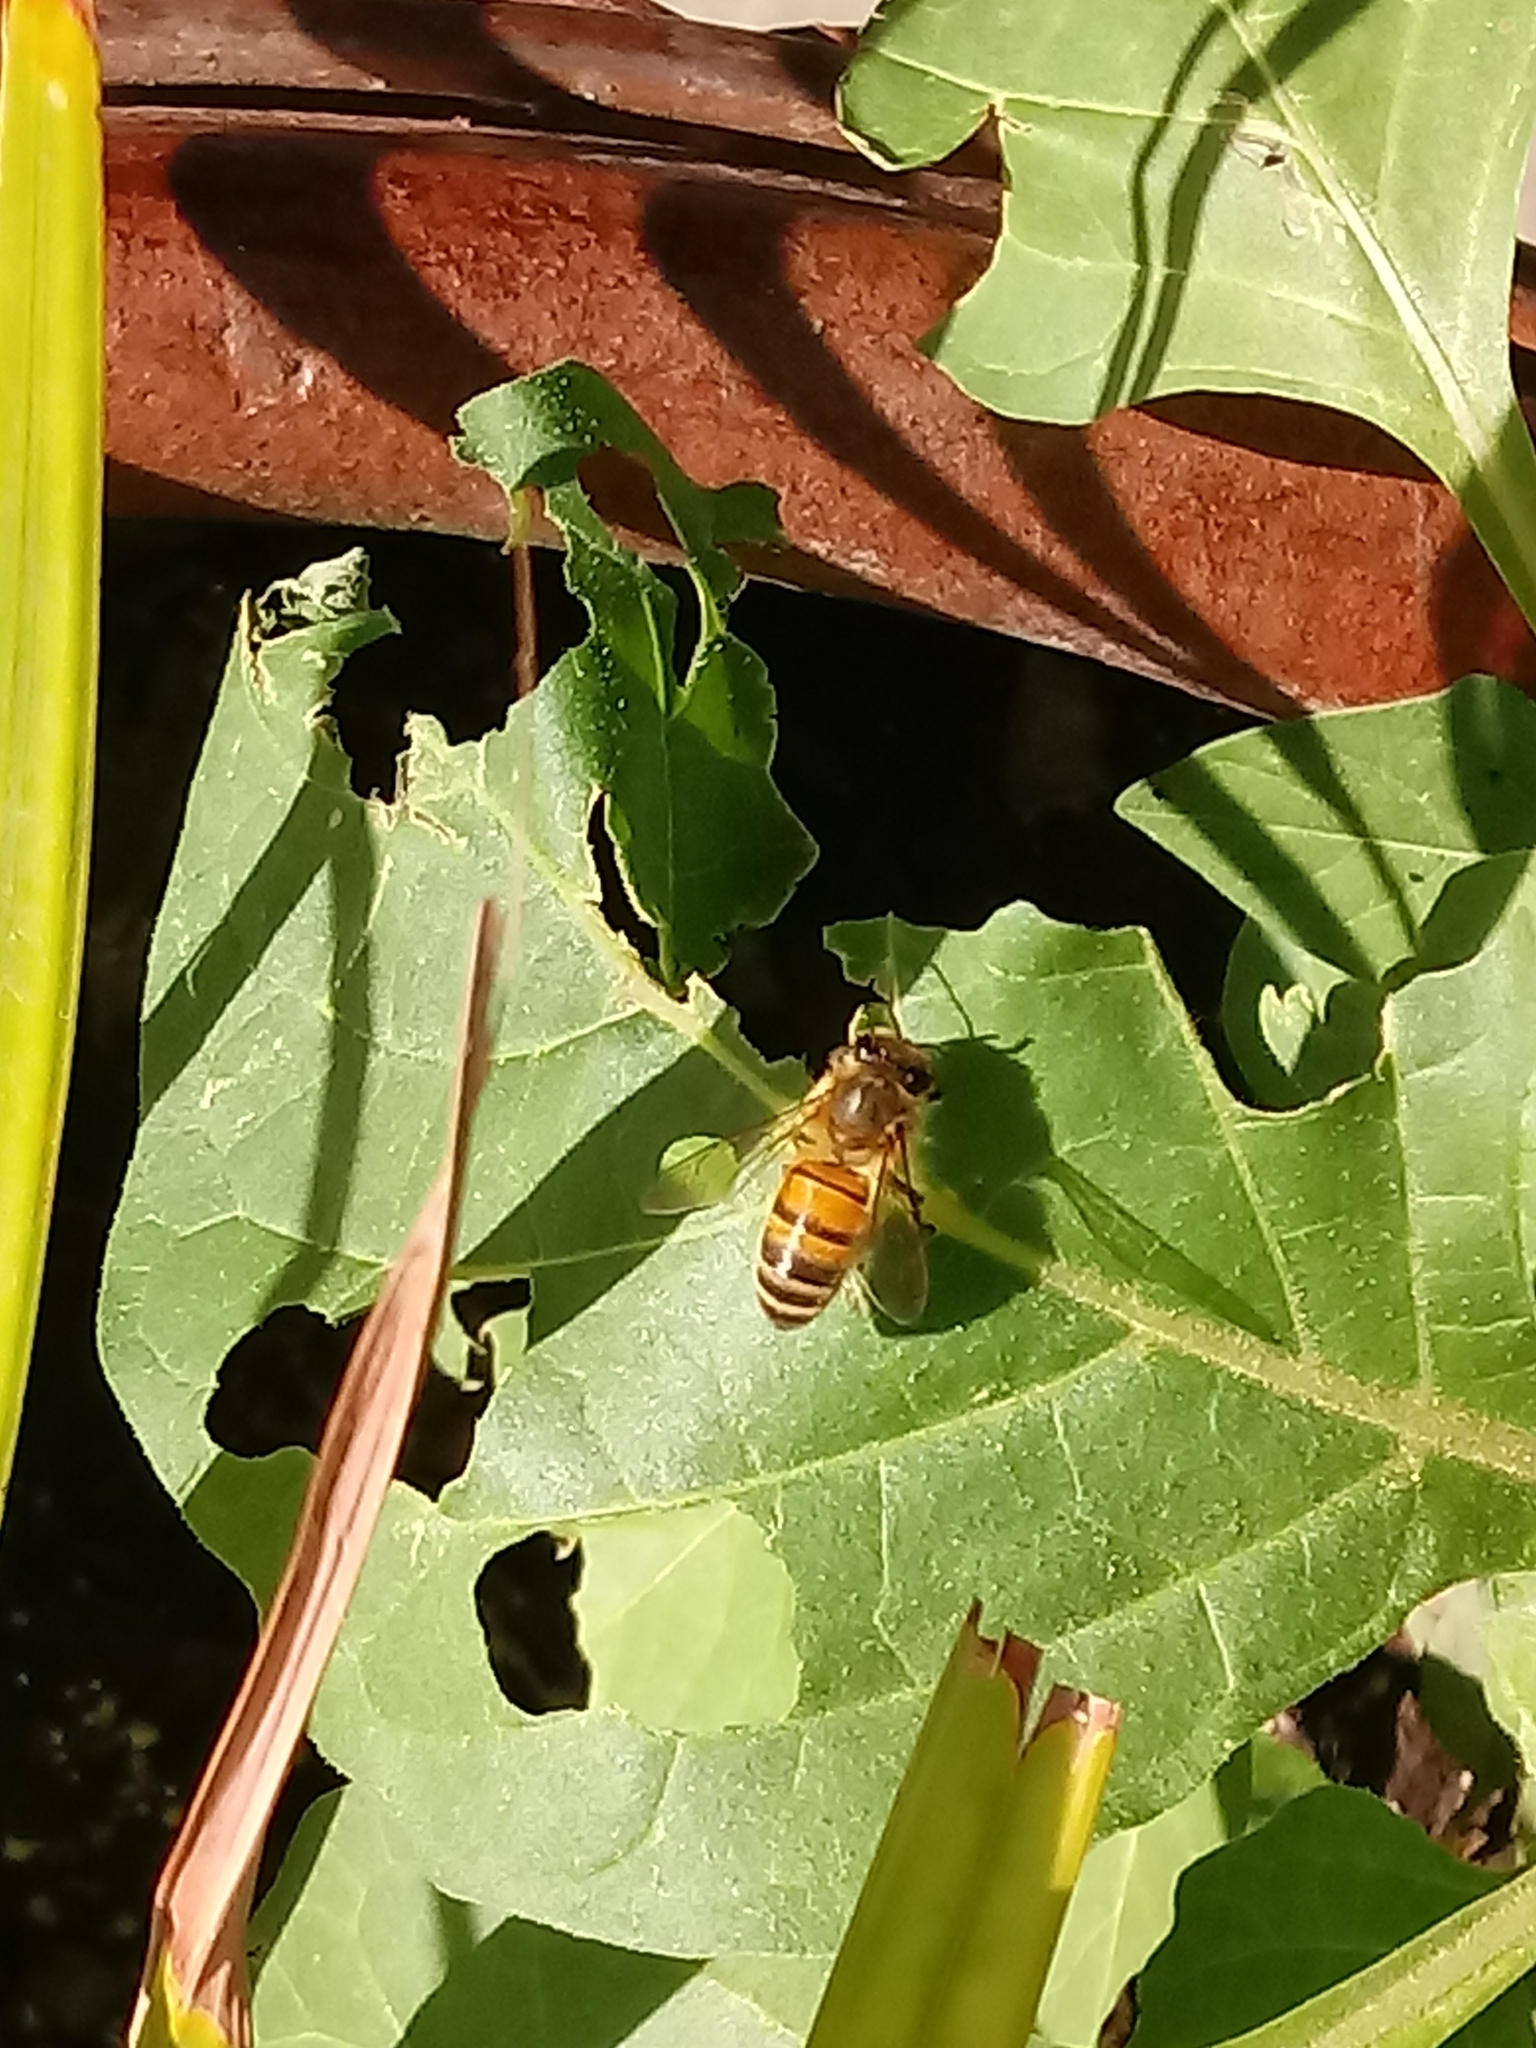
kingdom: Animalia
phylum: Arthropoda
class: Insecta
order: Hymenoptera
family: Apidae
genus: Apis
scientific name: Apis mellifera
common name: Honey bee
